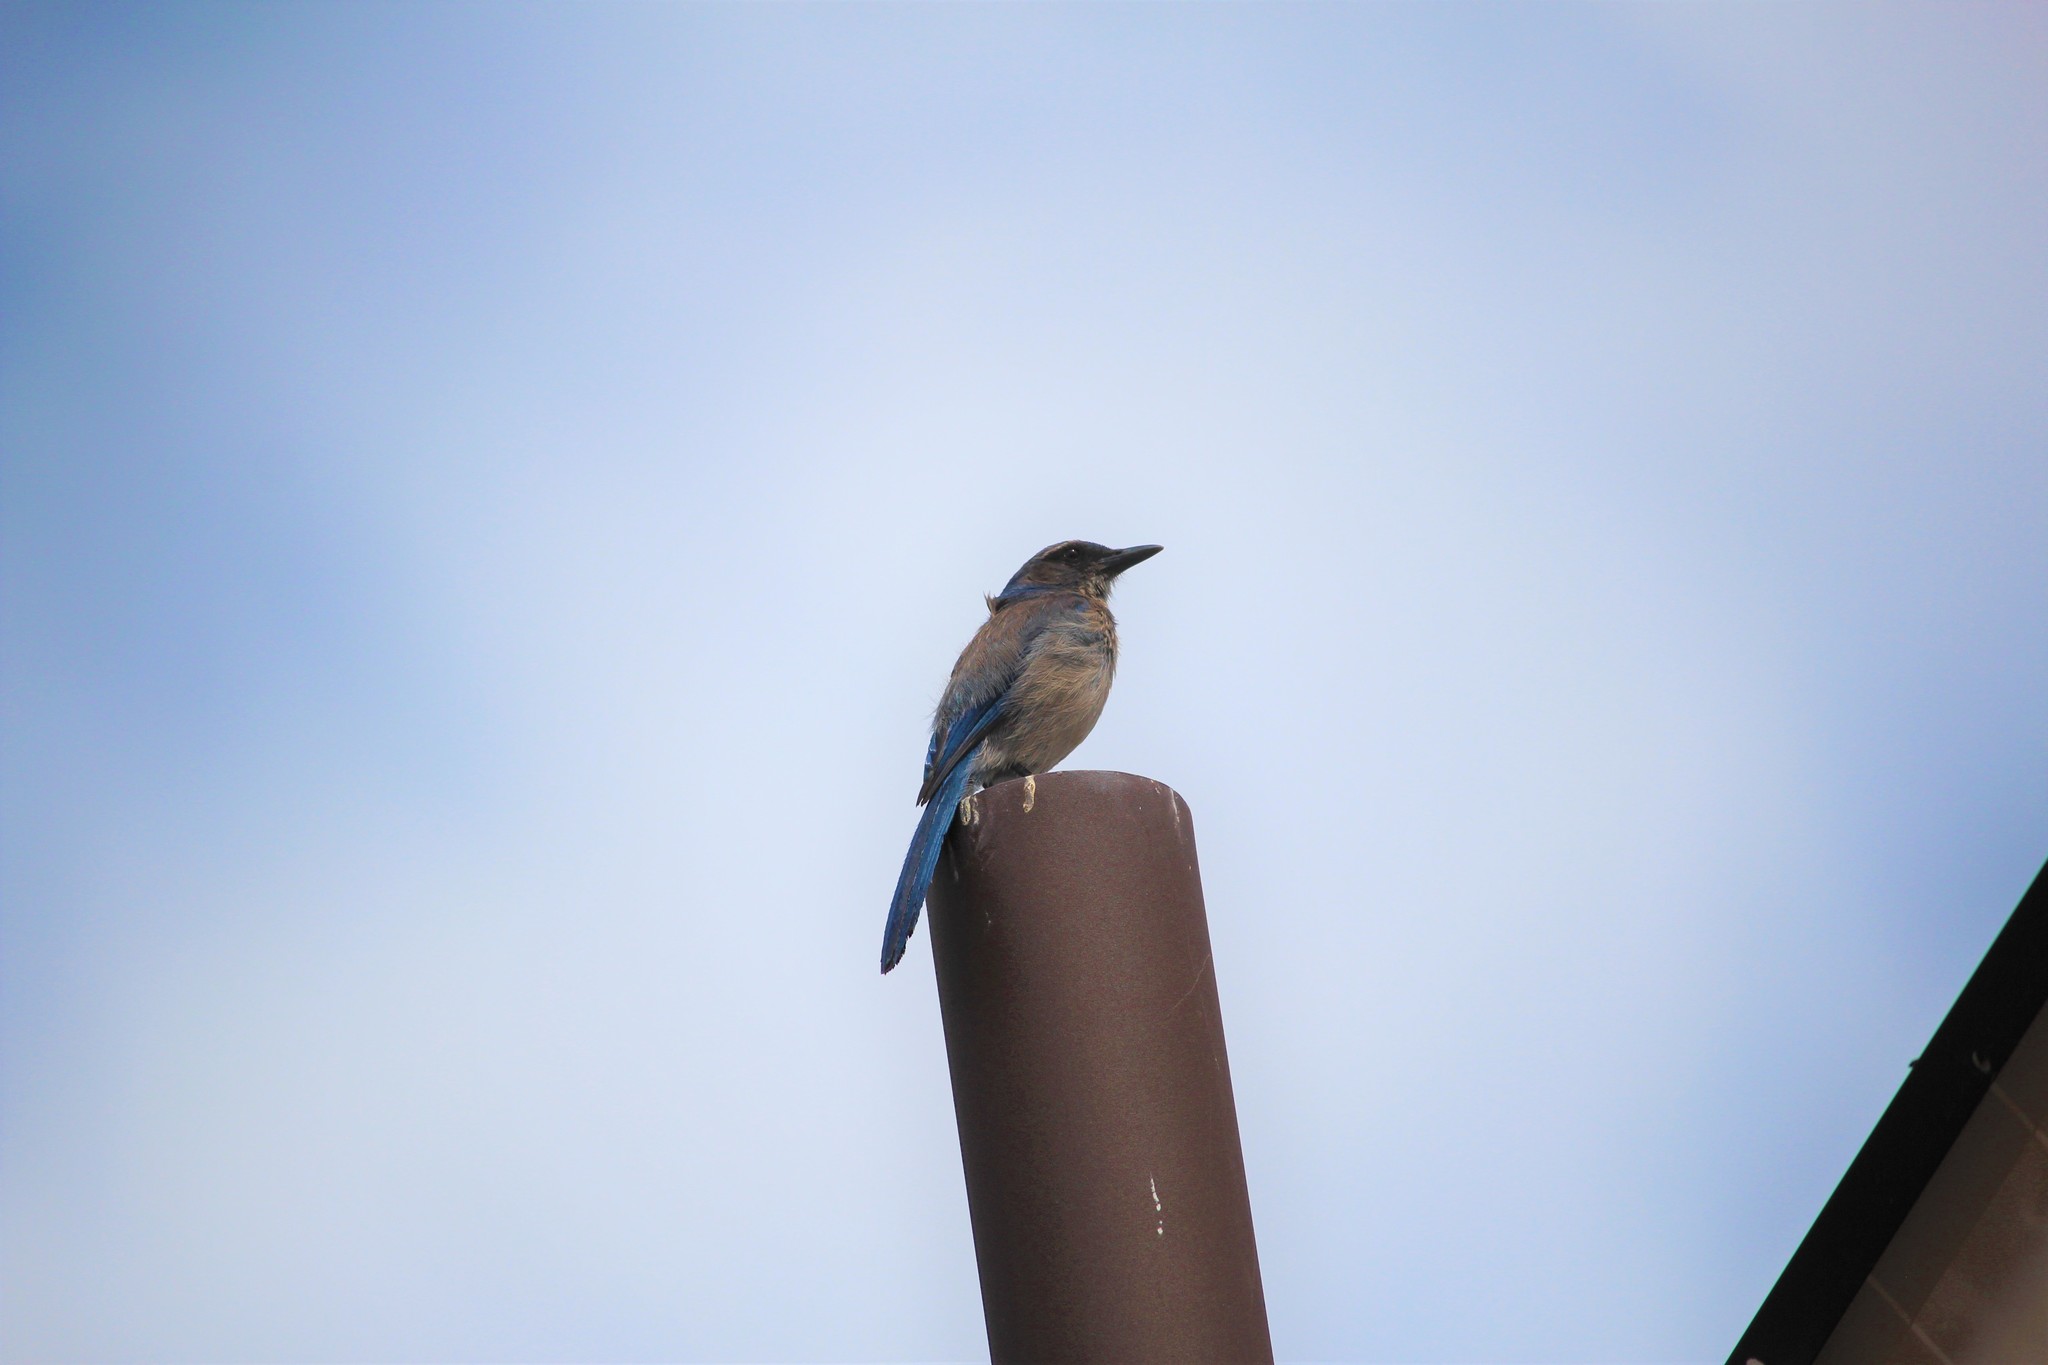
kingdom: Animalia
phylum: Chordata
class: Aves
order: Passeriformes
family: Corvidae
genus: Aphelocoma
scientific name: Aphelocoma woodhouseii
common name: Woodhouse's scrub-jay
